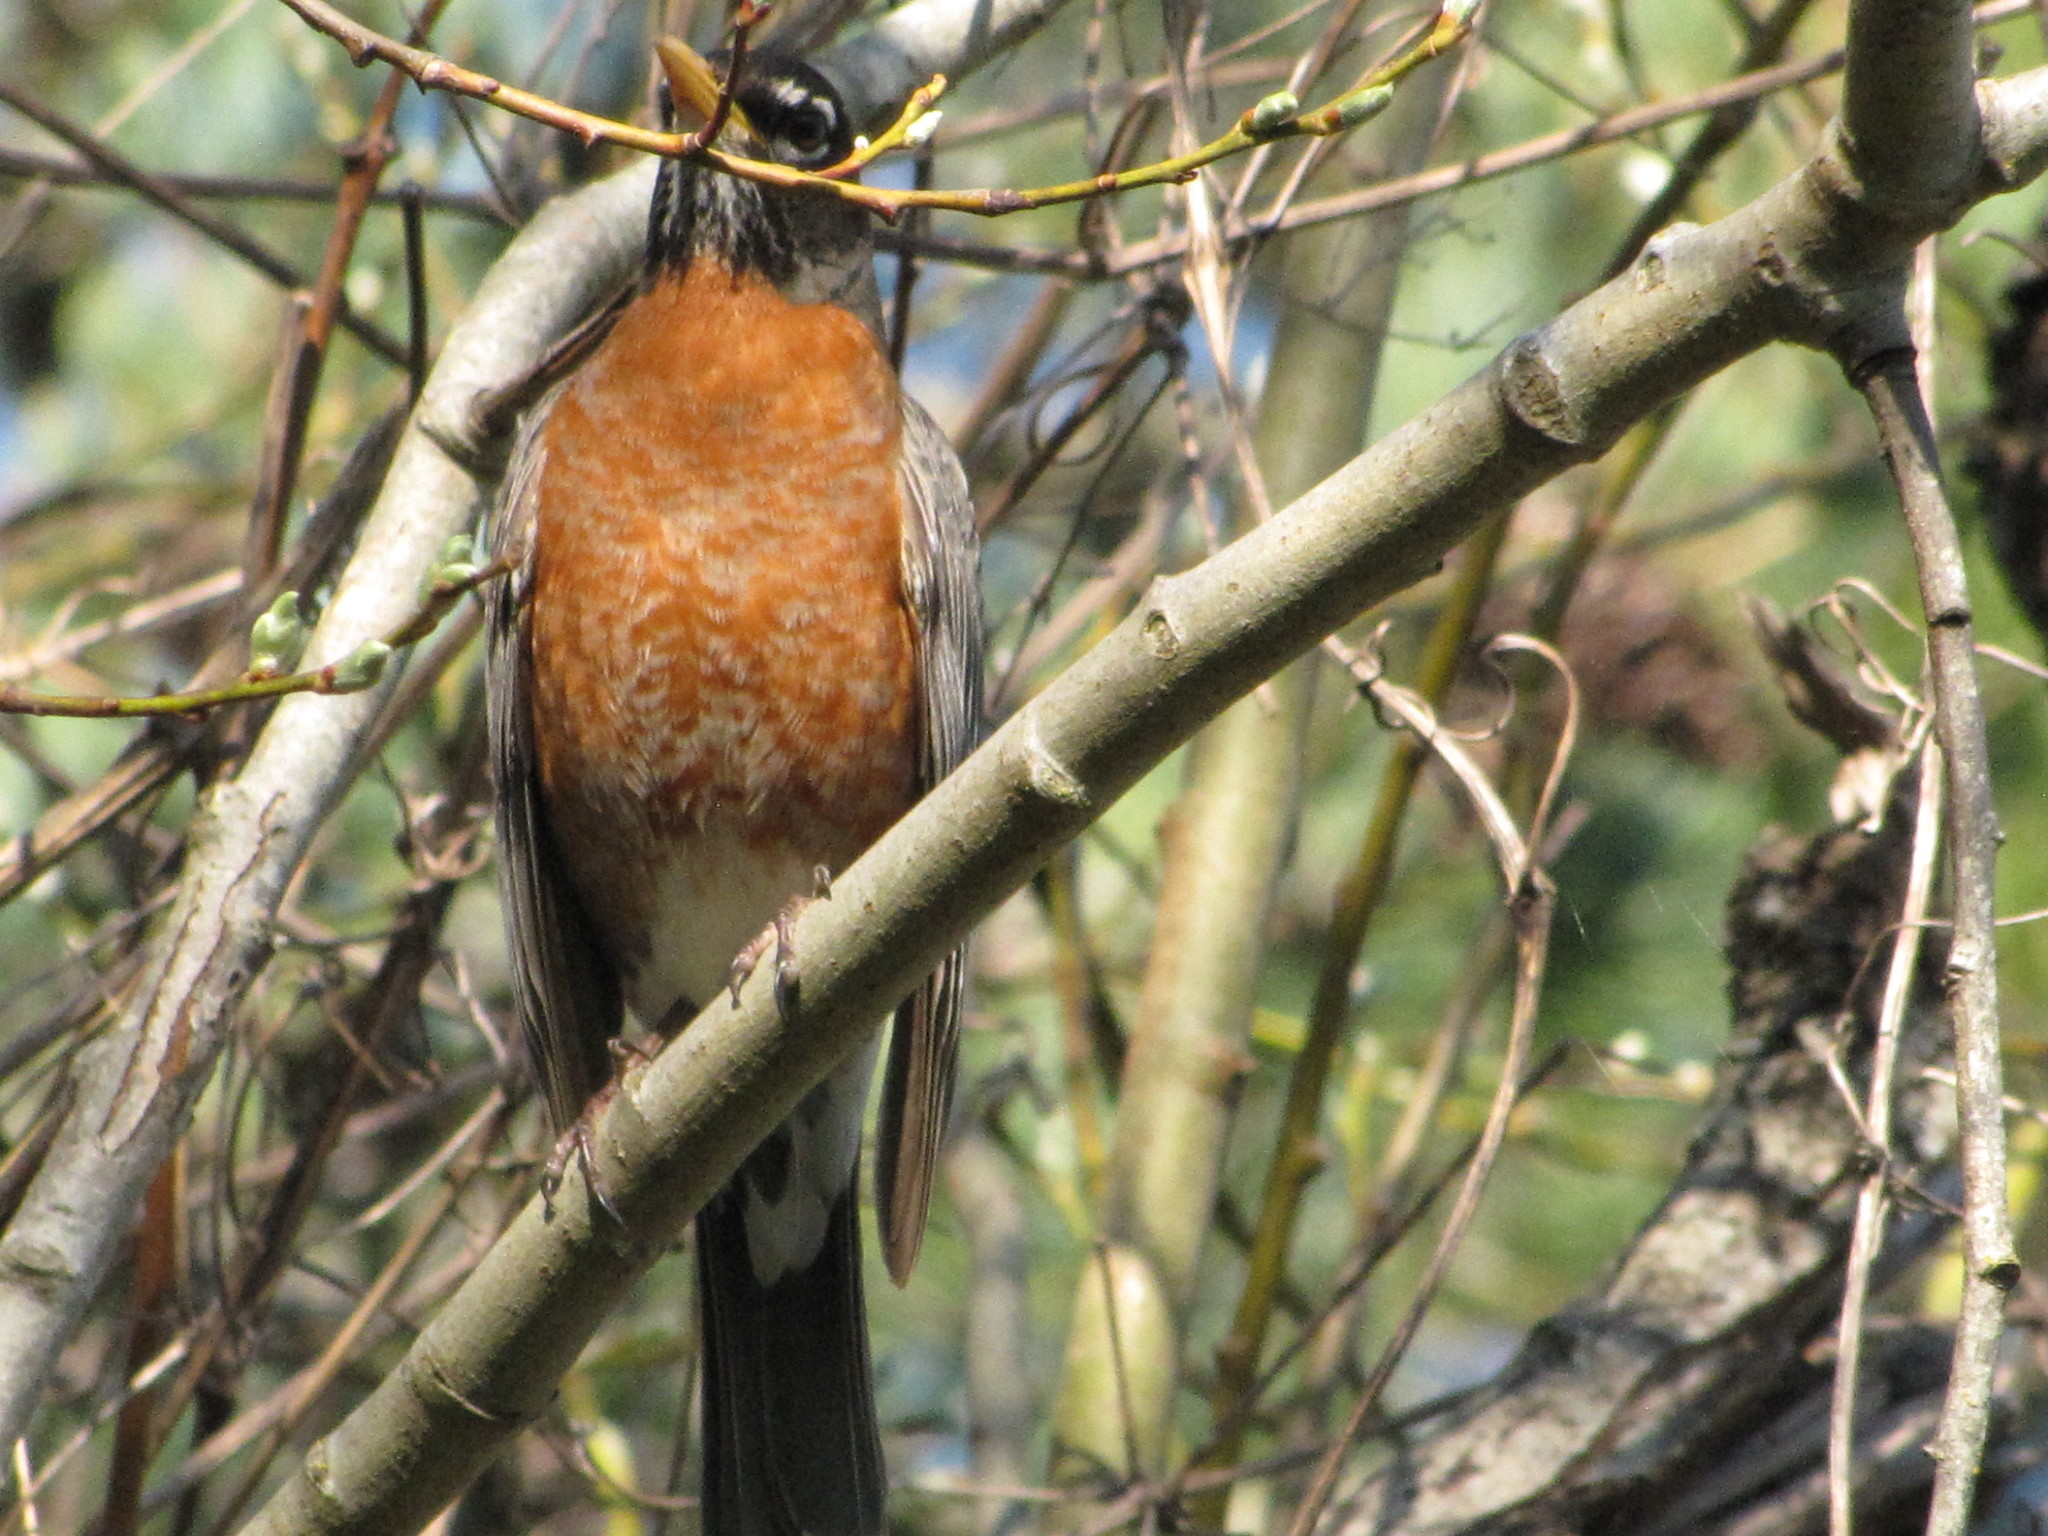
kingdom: Animalia
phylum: Chordata
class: Aves
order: Passeriformes
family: Turdidae
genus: Turdus
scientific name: Turdus migratorius
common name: American robin
